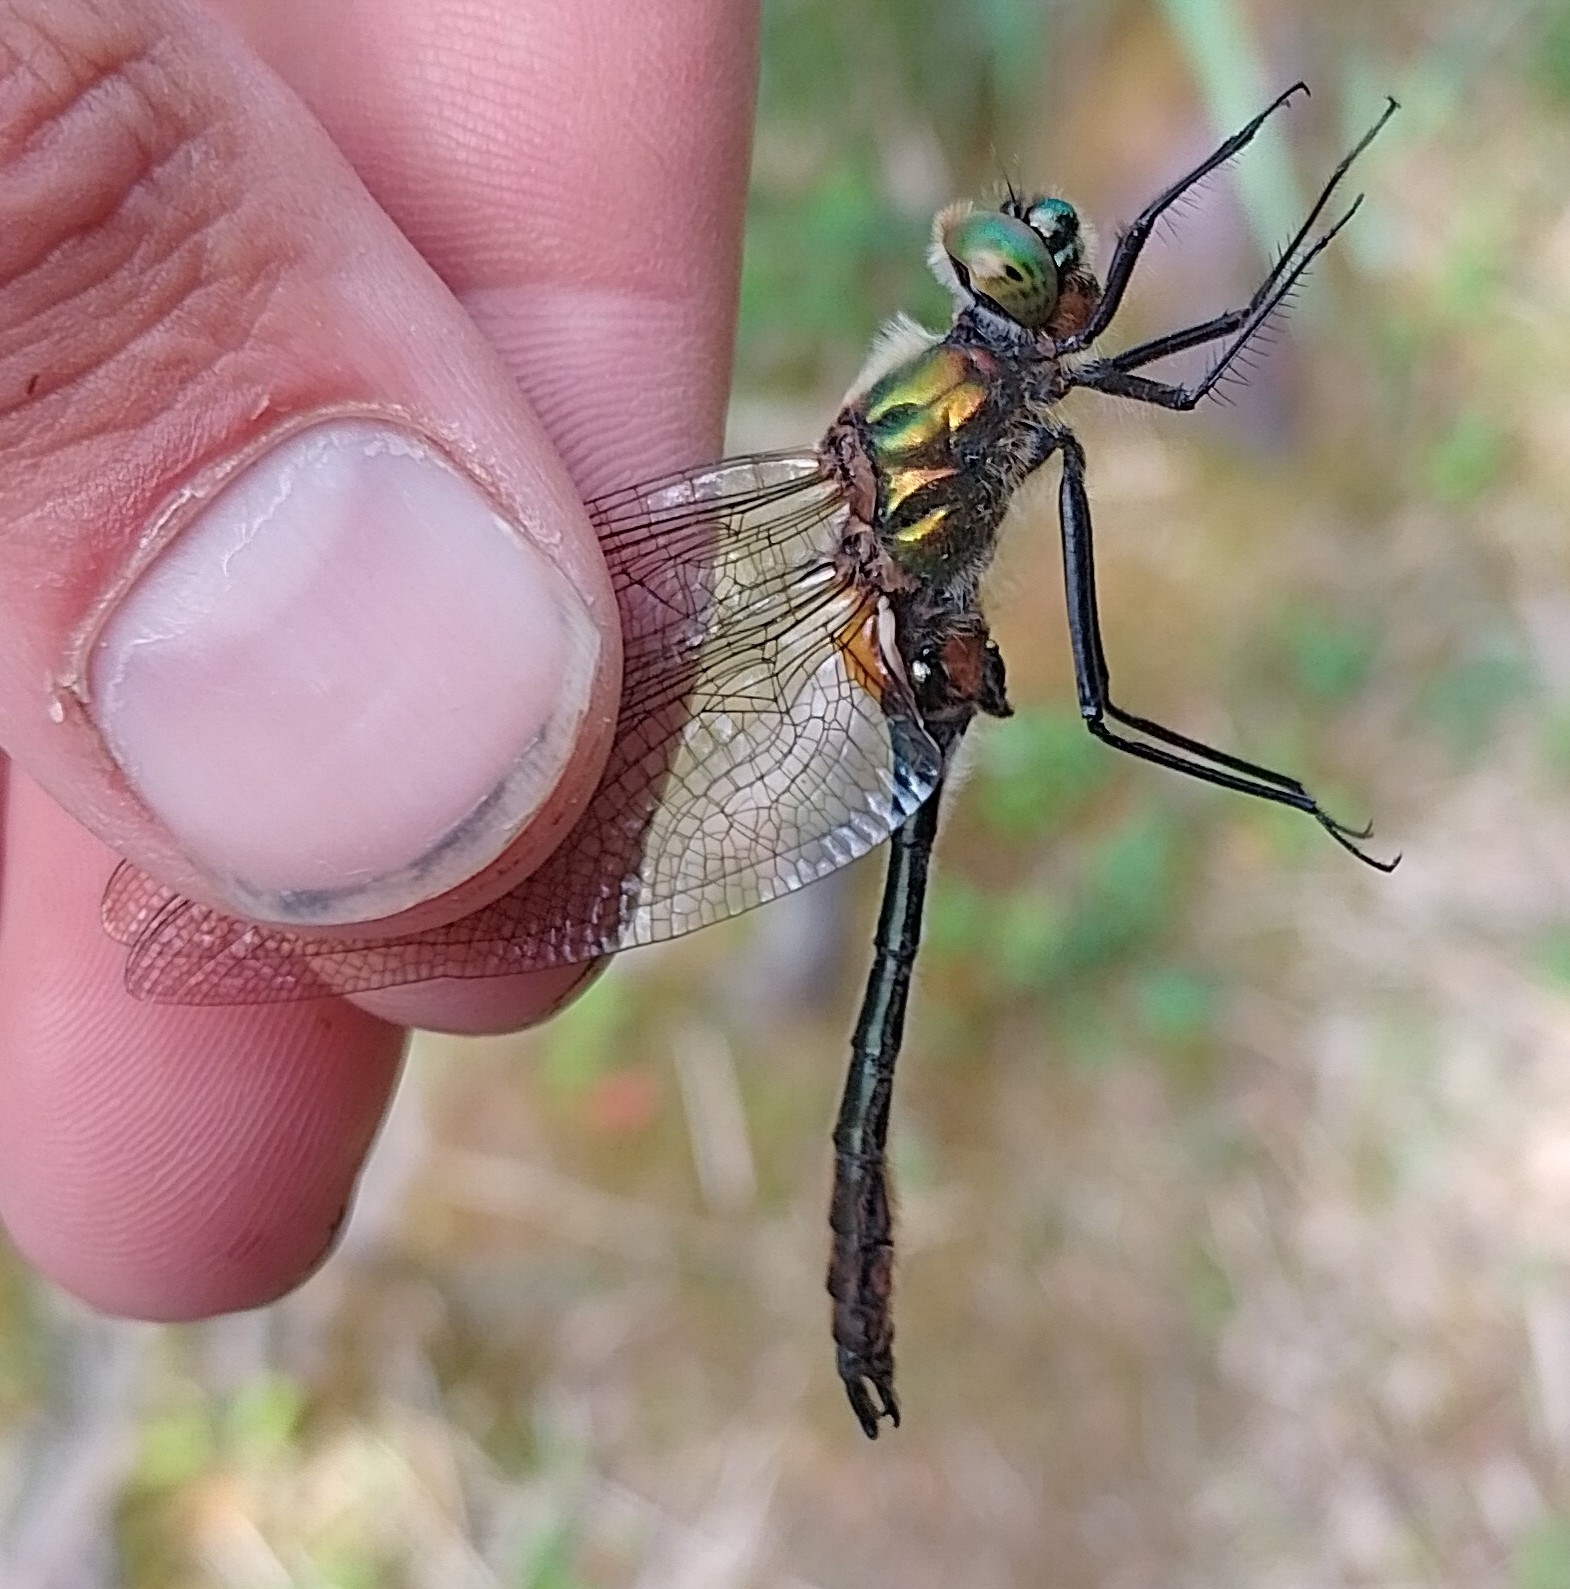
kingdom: Animalia
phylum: Arthropoda
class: Insecta
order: Odonata
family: Corduliidae
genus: Cordulia
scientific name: Cordulia aenea
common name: Downy emerald
